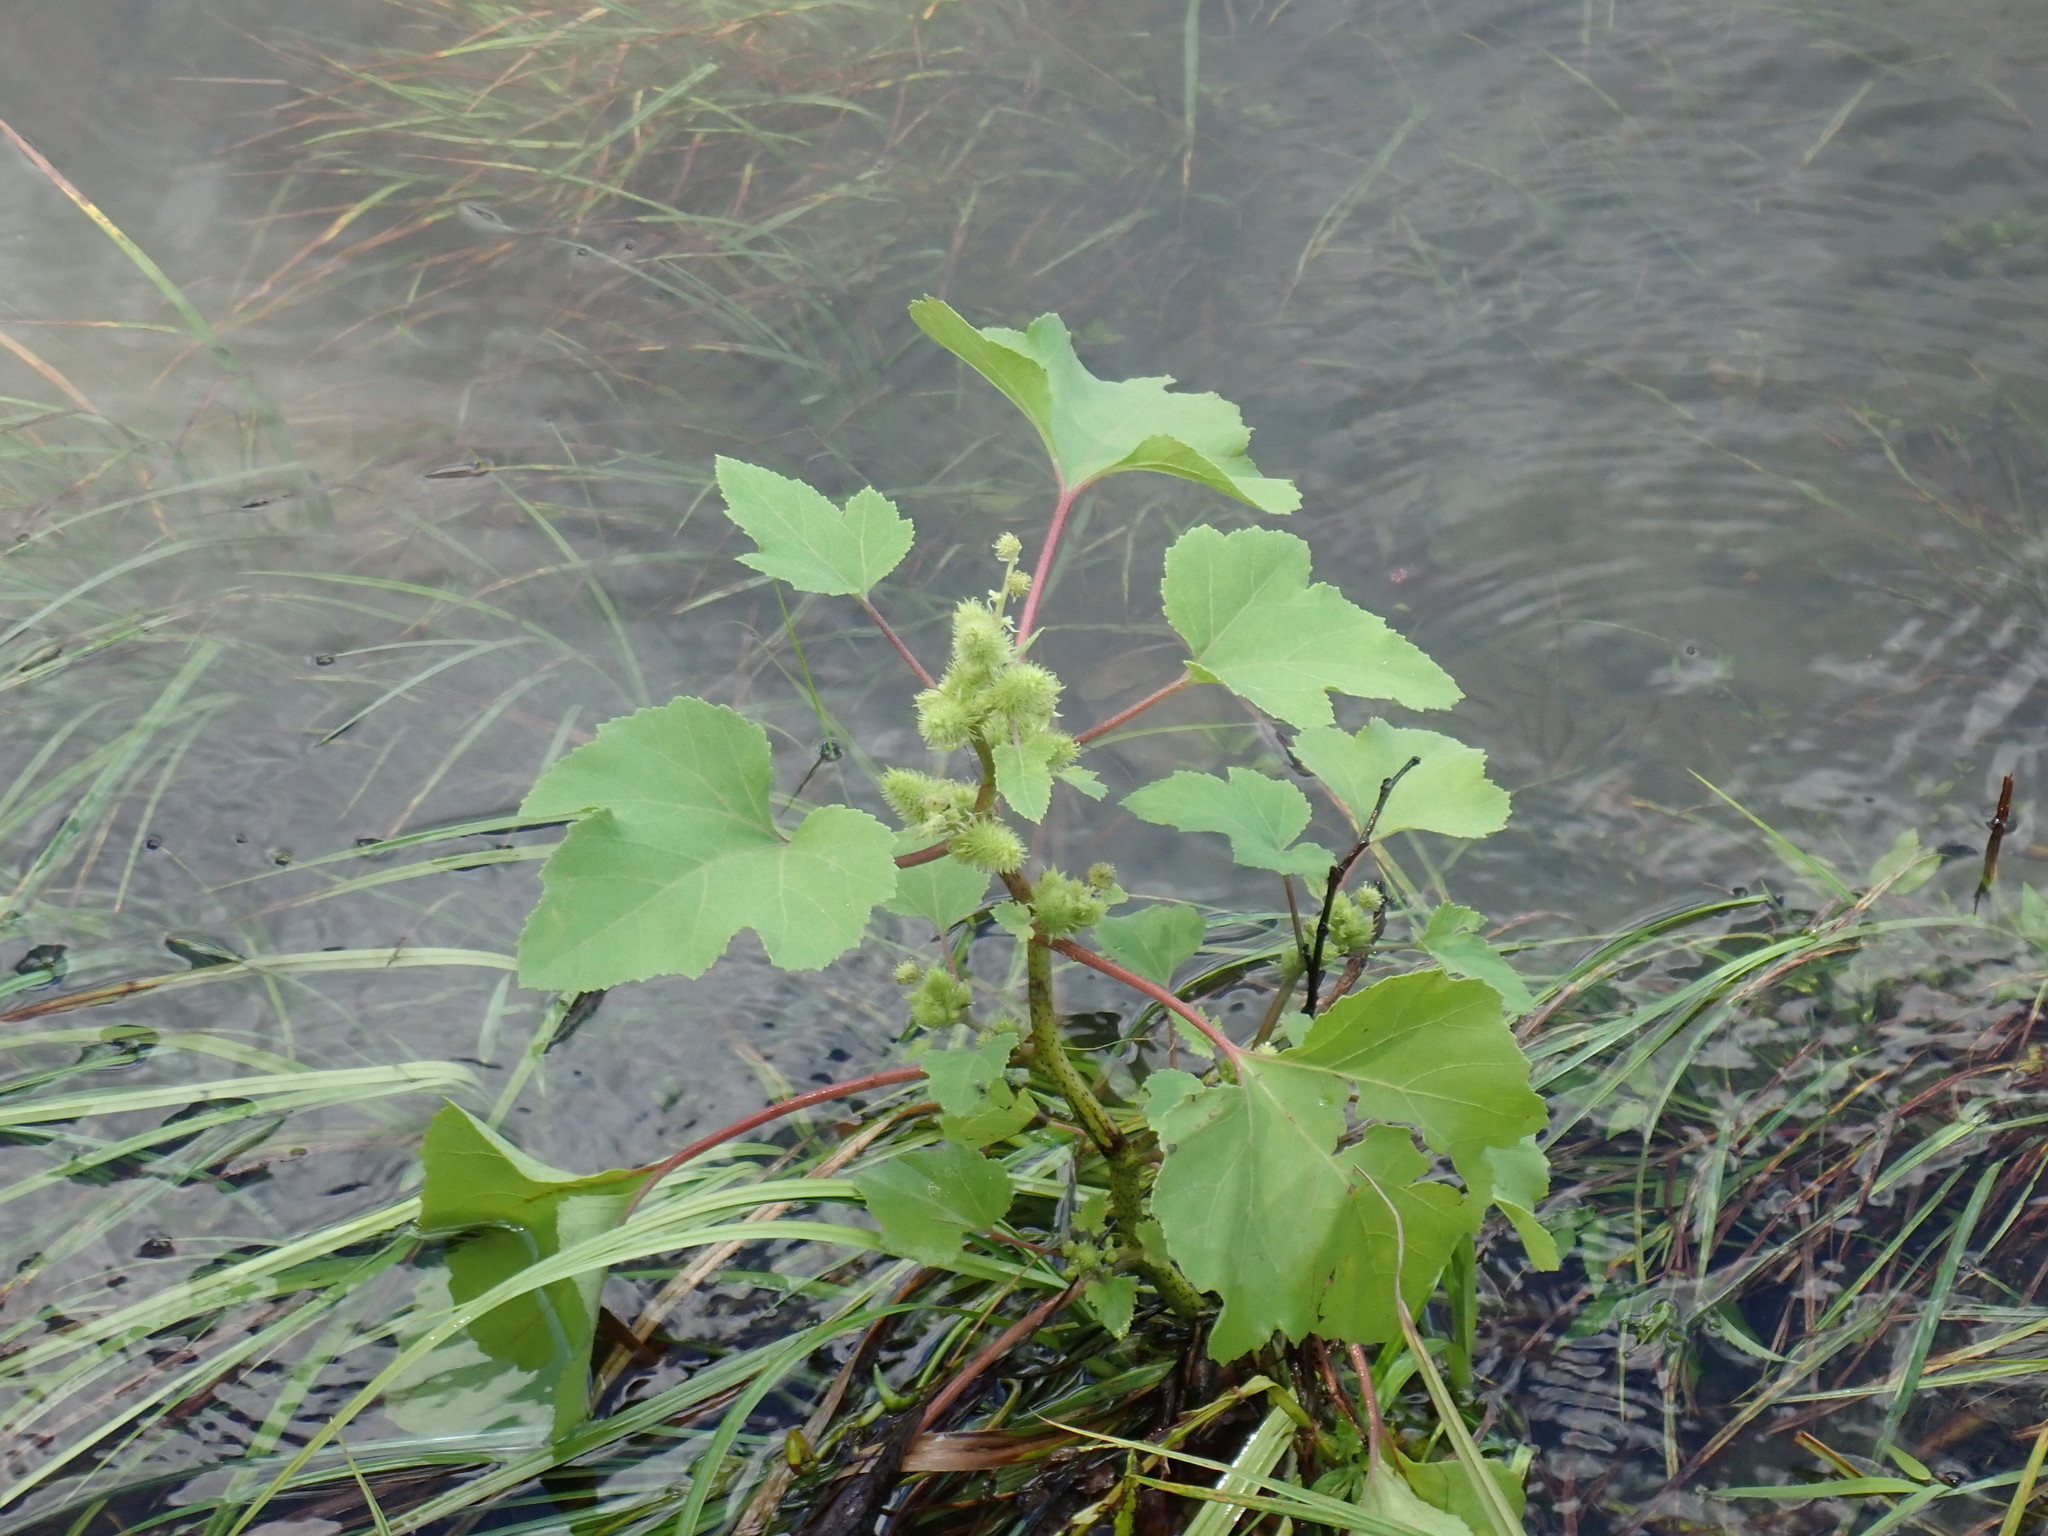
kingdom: Plantae
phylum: Tracheophyta
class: Magnoliopsida
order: Asterales
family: Asteraceae
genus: Xanthium
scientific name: Xanthium strumarium
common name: Rough cocklebur
